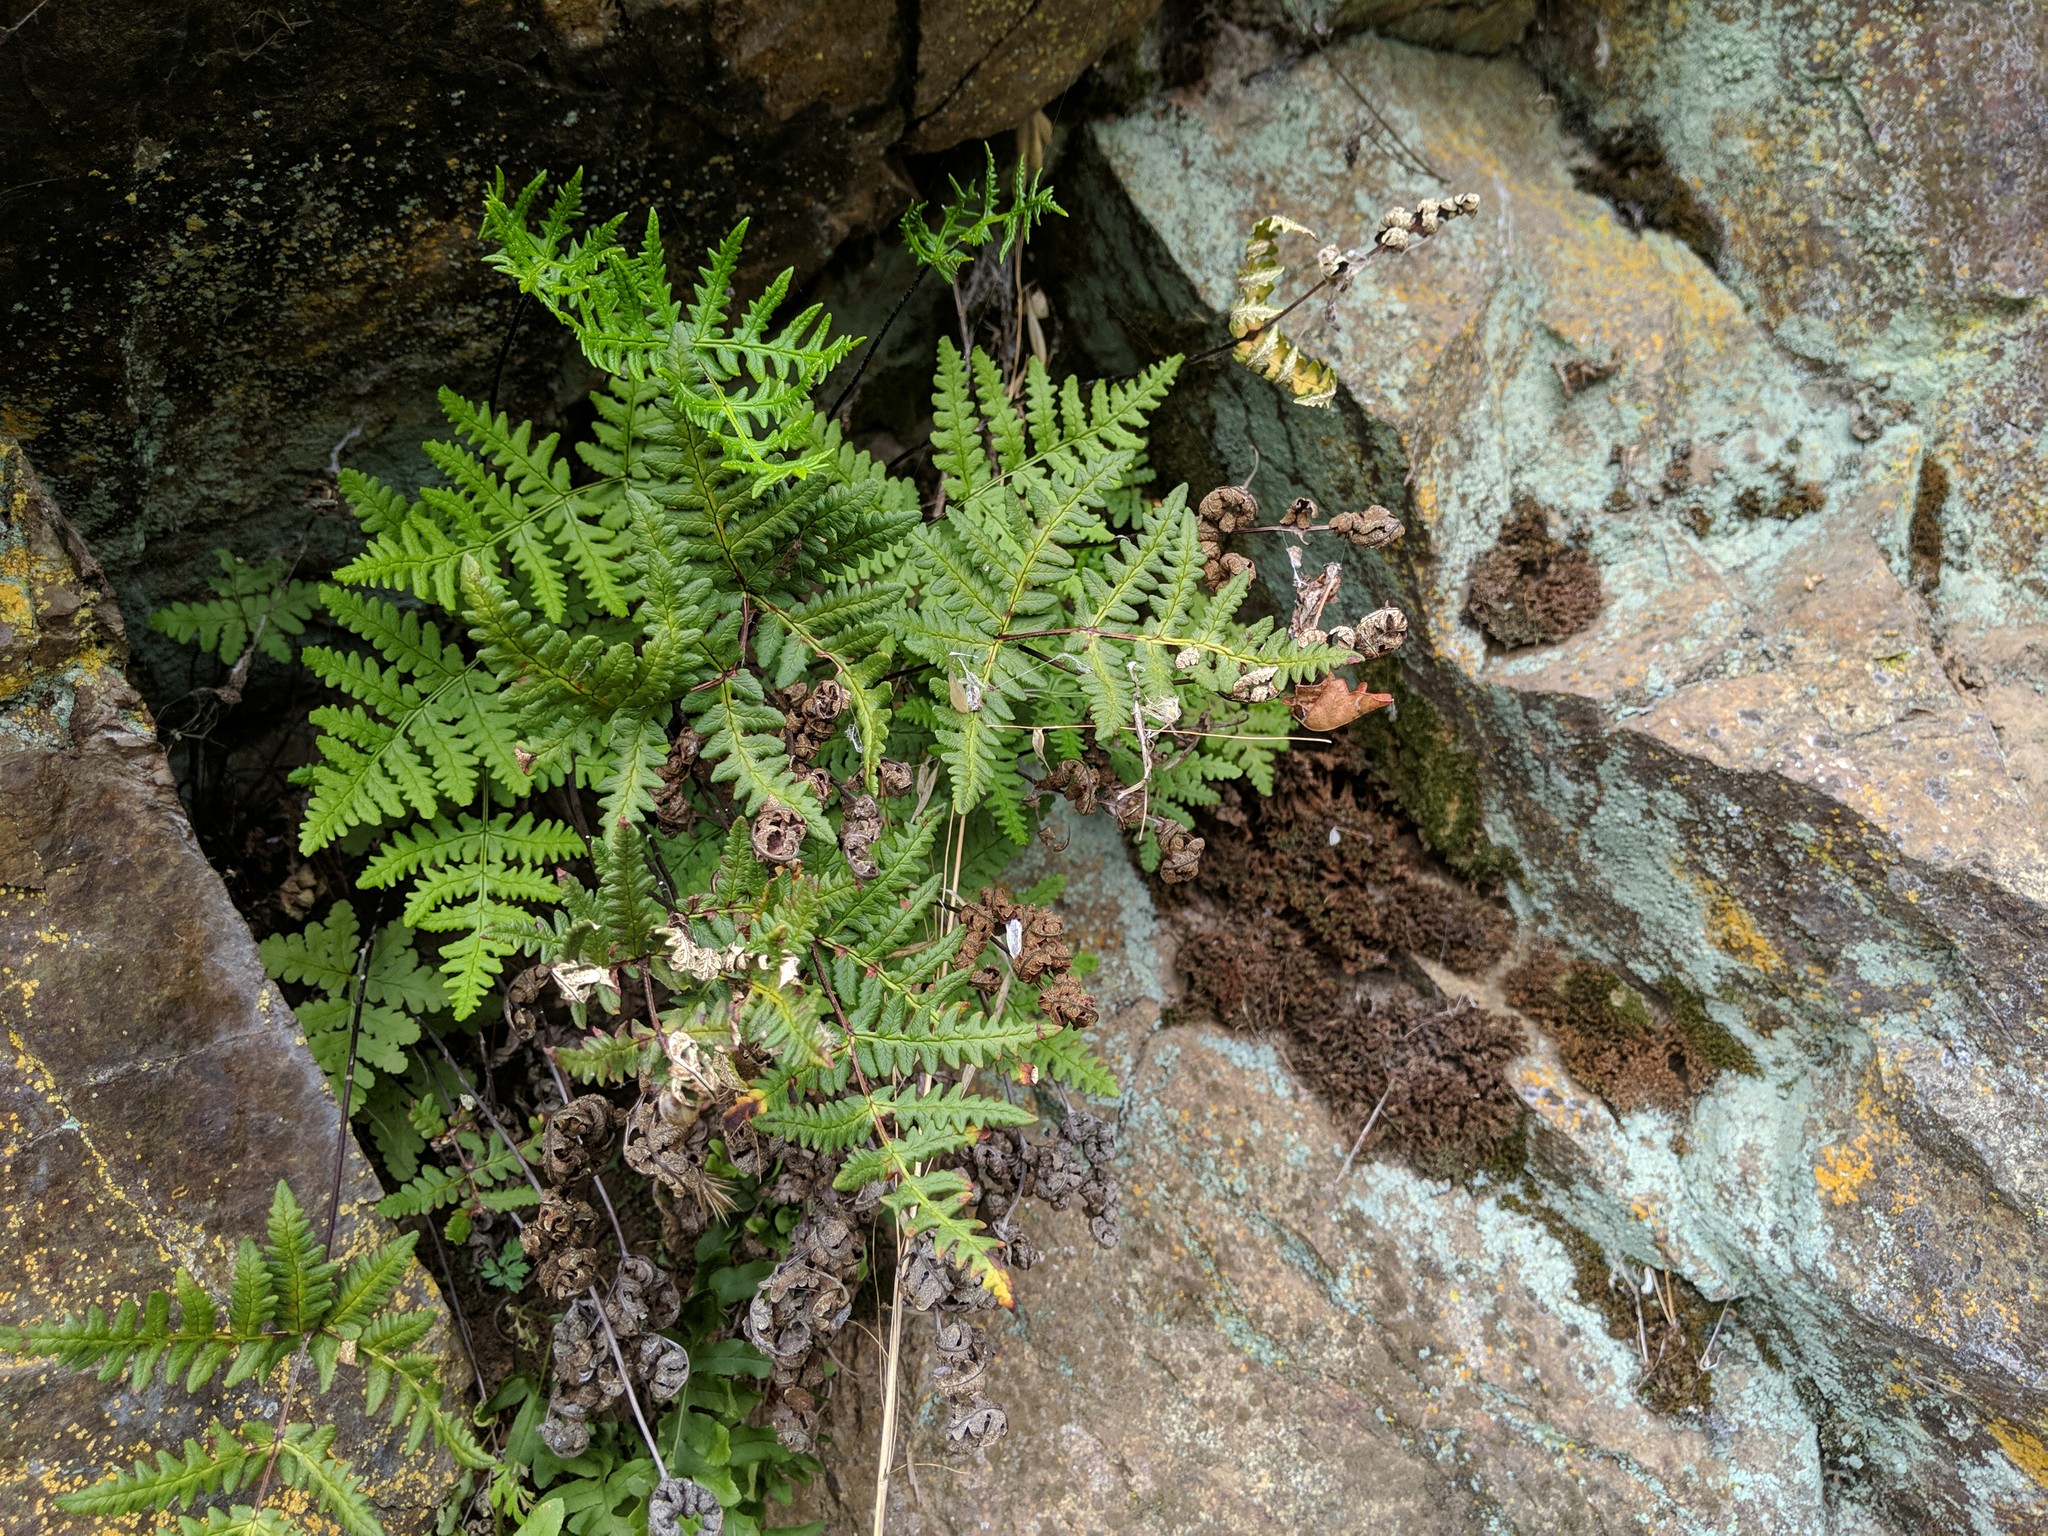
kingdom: Plantae
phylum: Tracheophyta
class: Polypodiopsida
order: Polypodiales
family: Pteridaceae
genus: Pentagramma
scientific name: Pentagramma triangularis
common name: Gold fern
